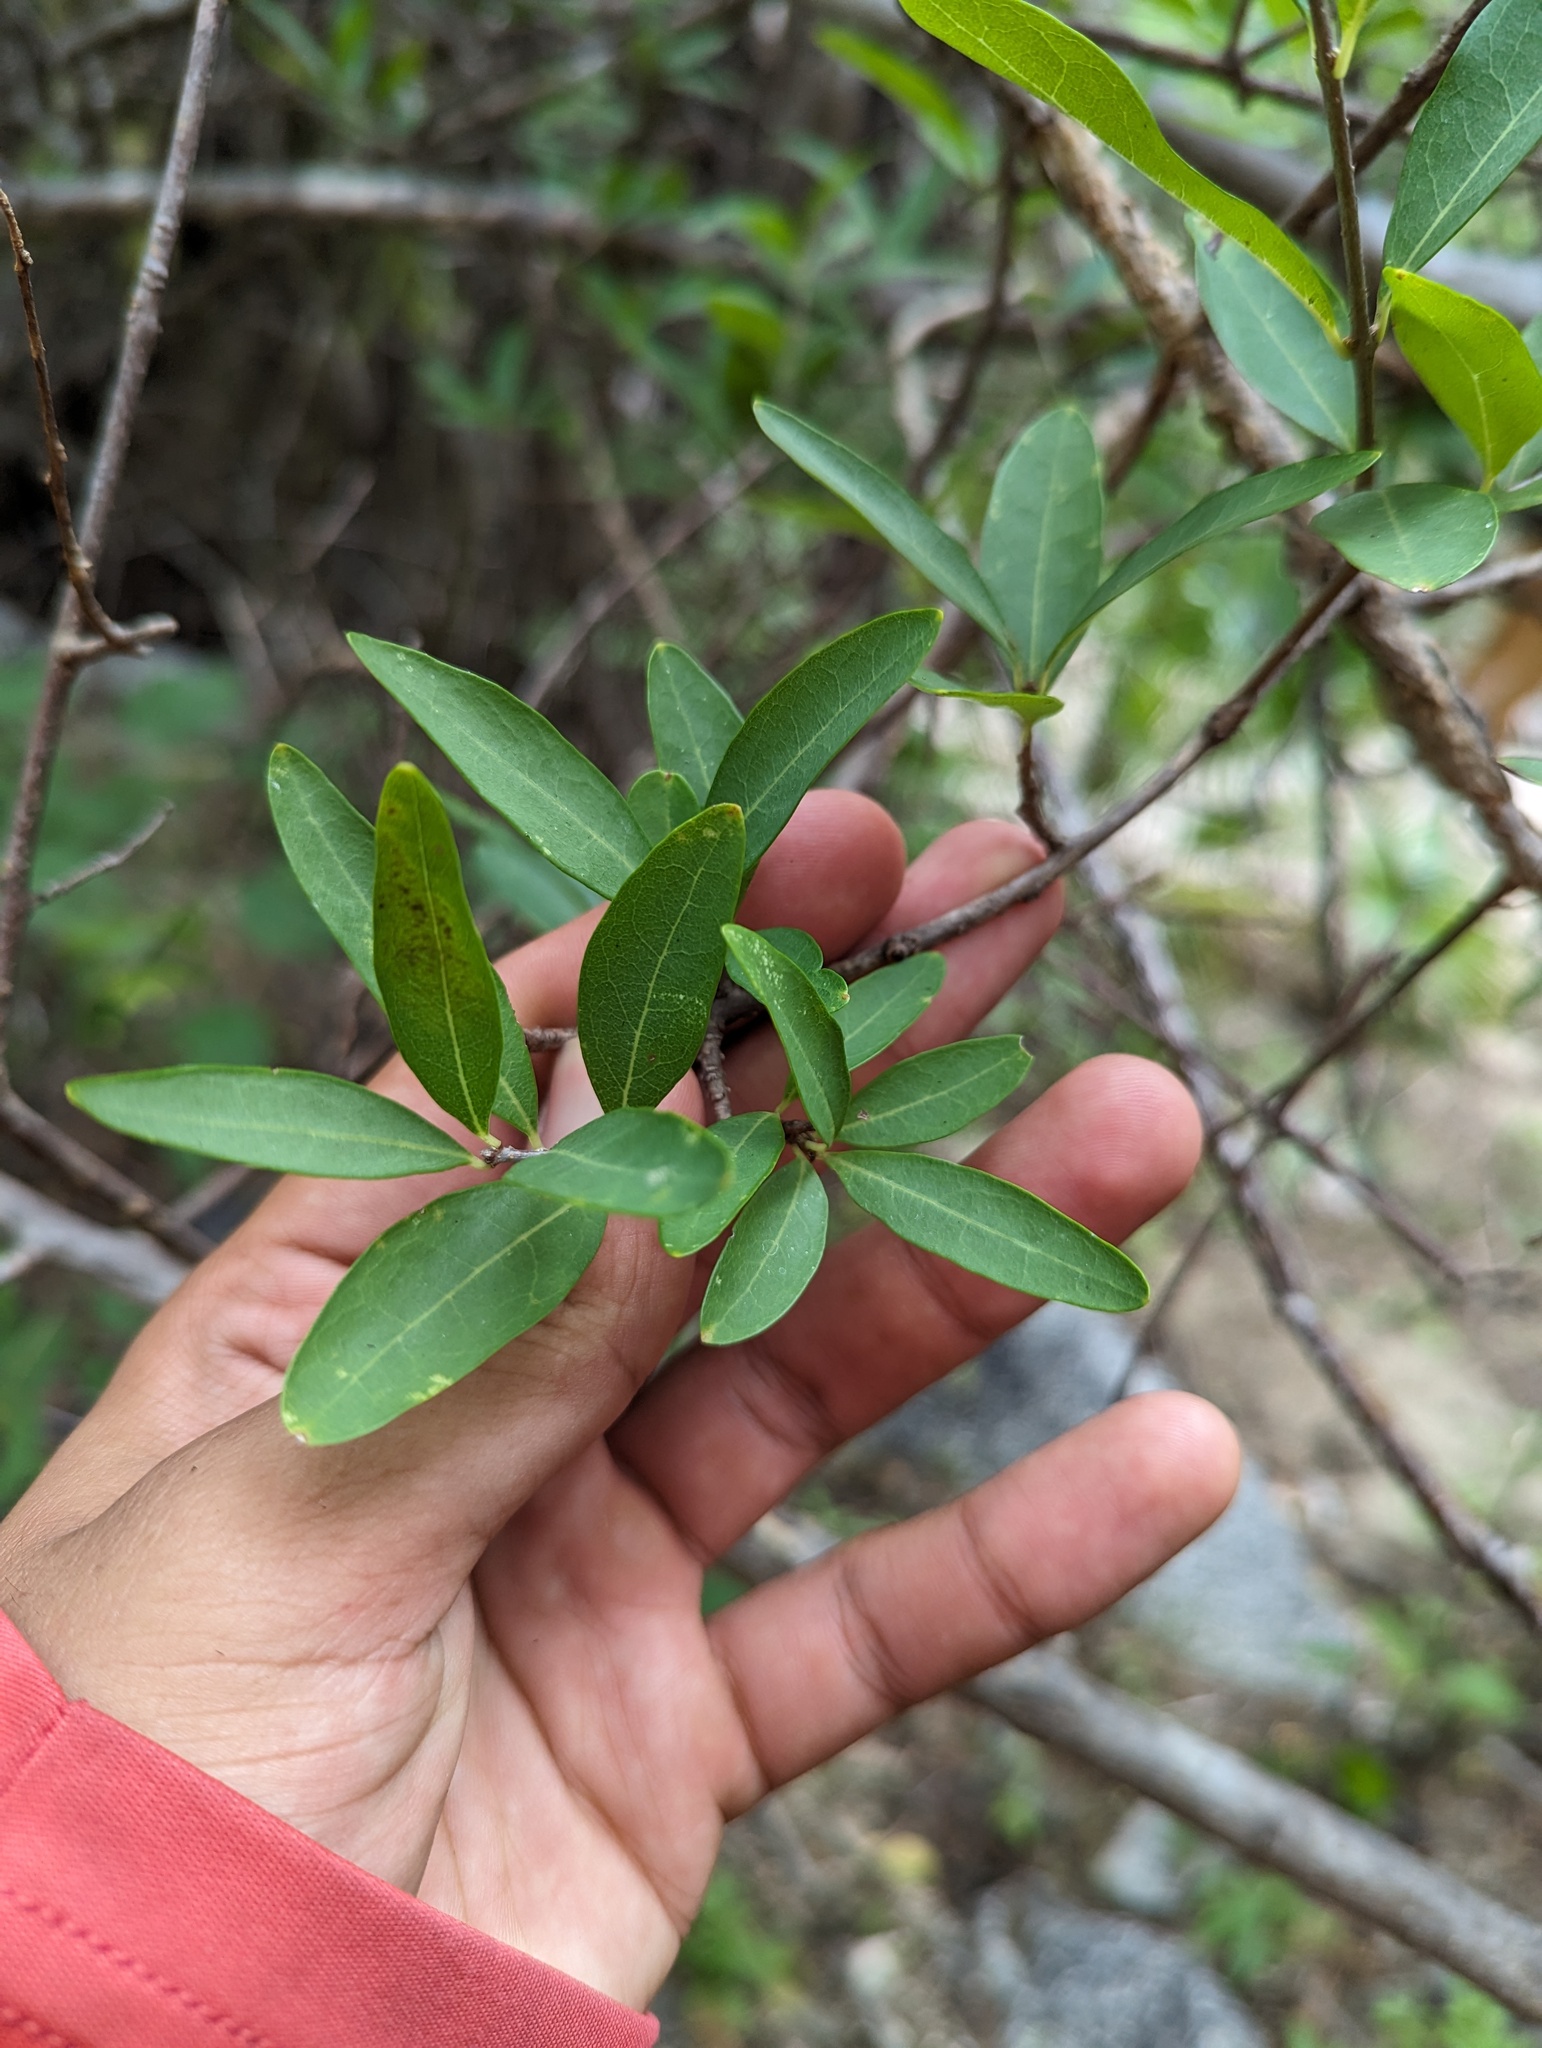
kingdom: Plantae
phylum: Tracheophyta
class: Magnoliopsida
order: Lamiales
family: Oleaceae
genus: Forestiera
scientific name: Forestiera macrocarpa
